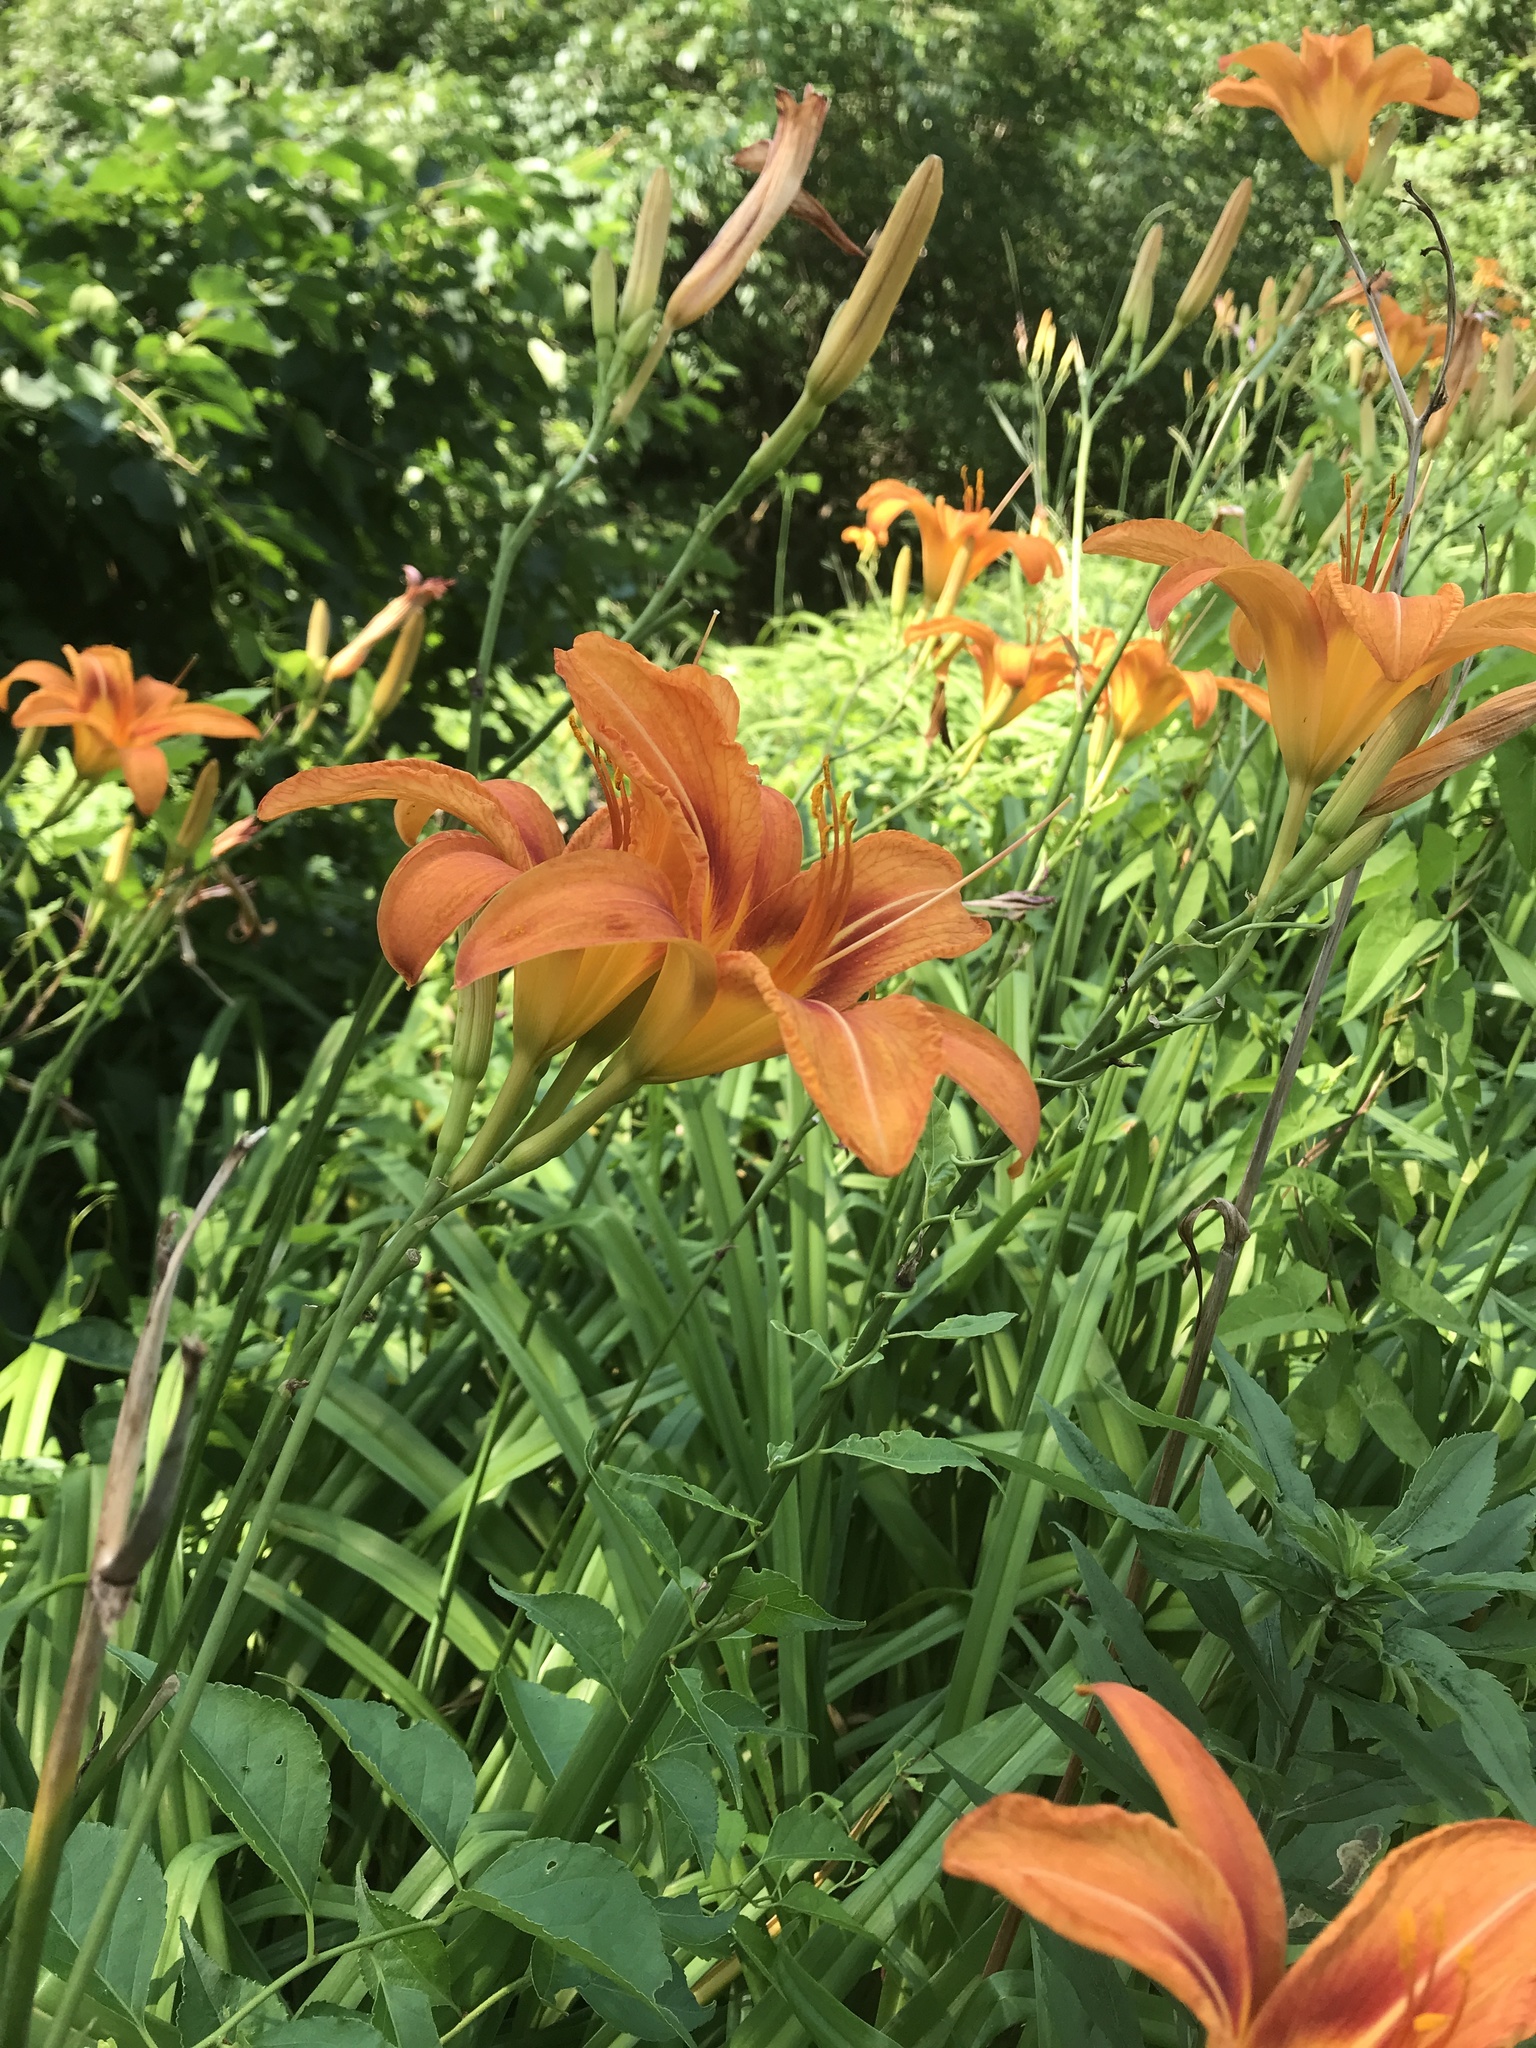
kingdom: Plantae
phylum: Tracheophyta
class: Liliopsida
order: Asparagales
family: Asphodelaceae
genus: Hemerocallis
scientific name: Hemerocallis fulva
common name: Orange day-lily
